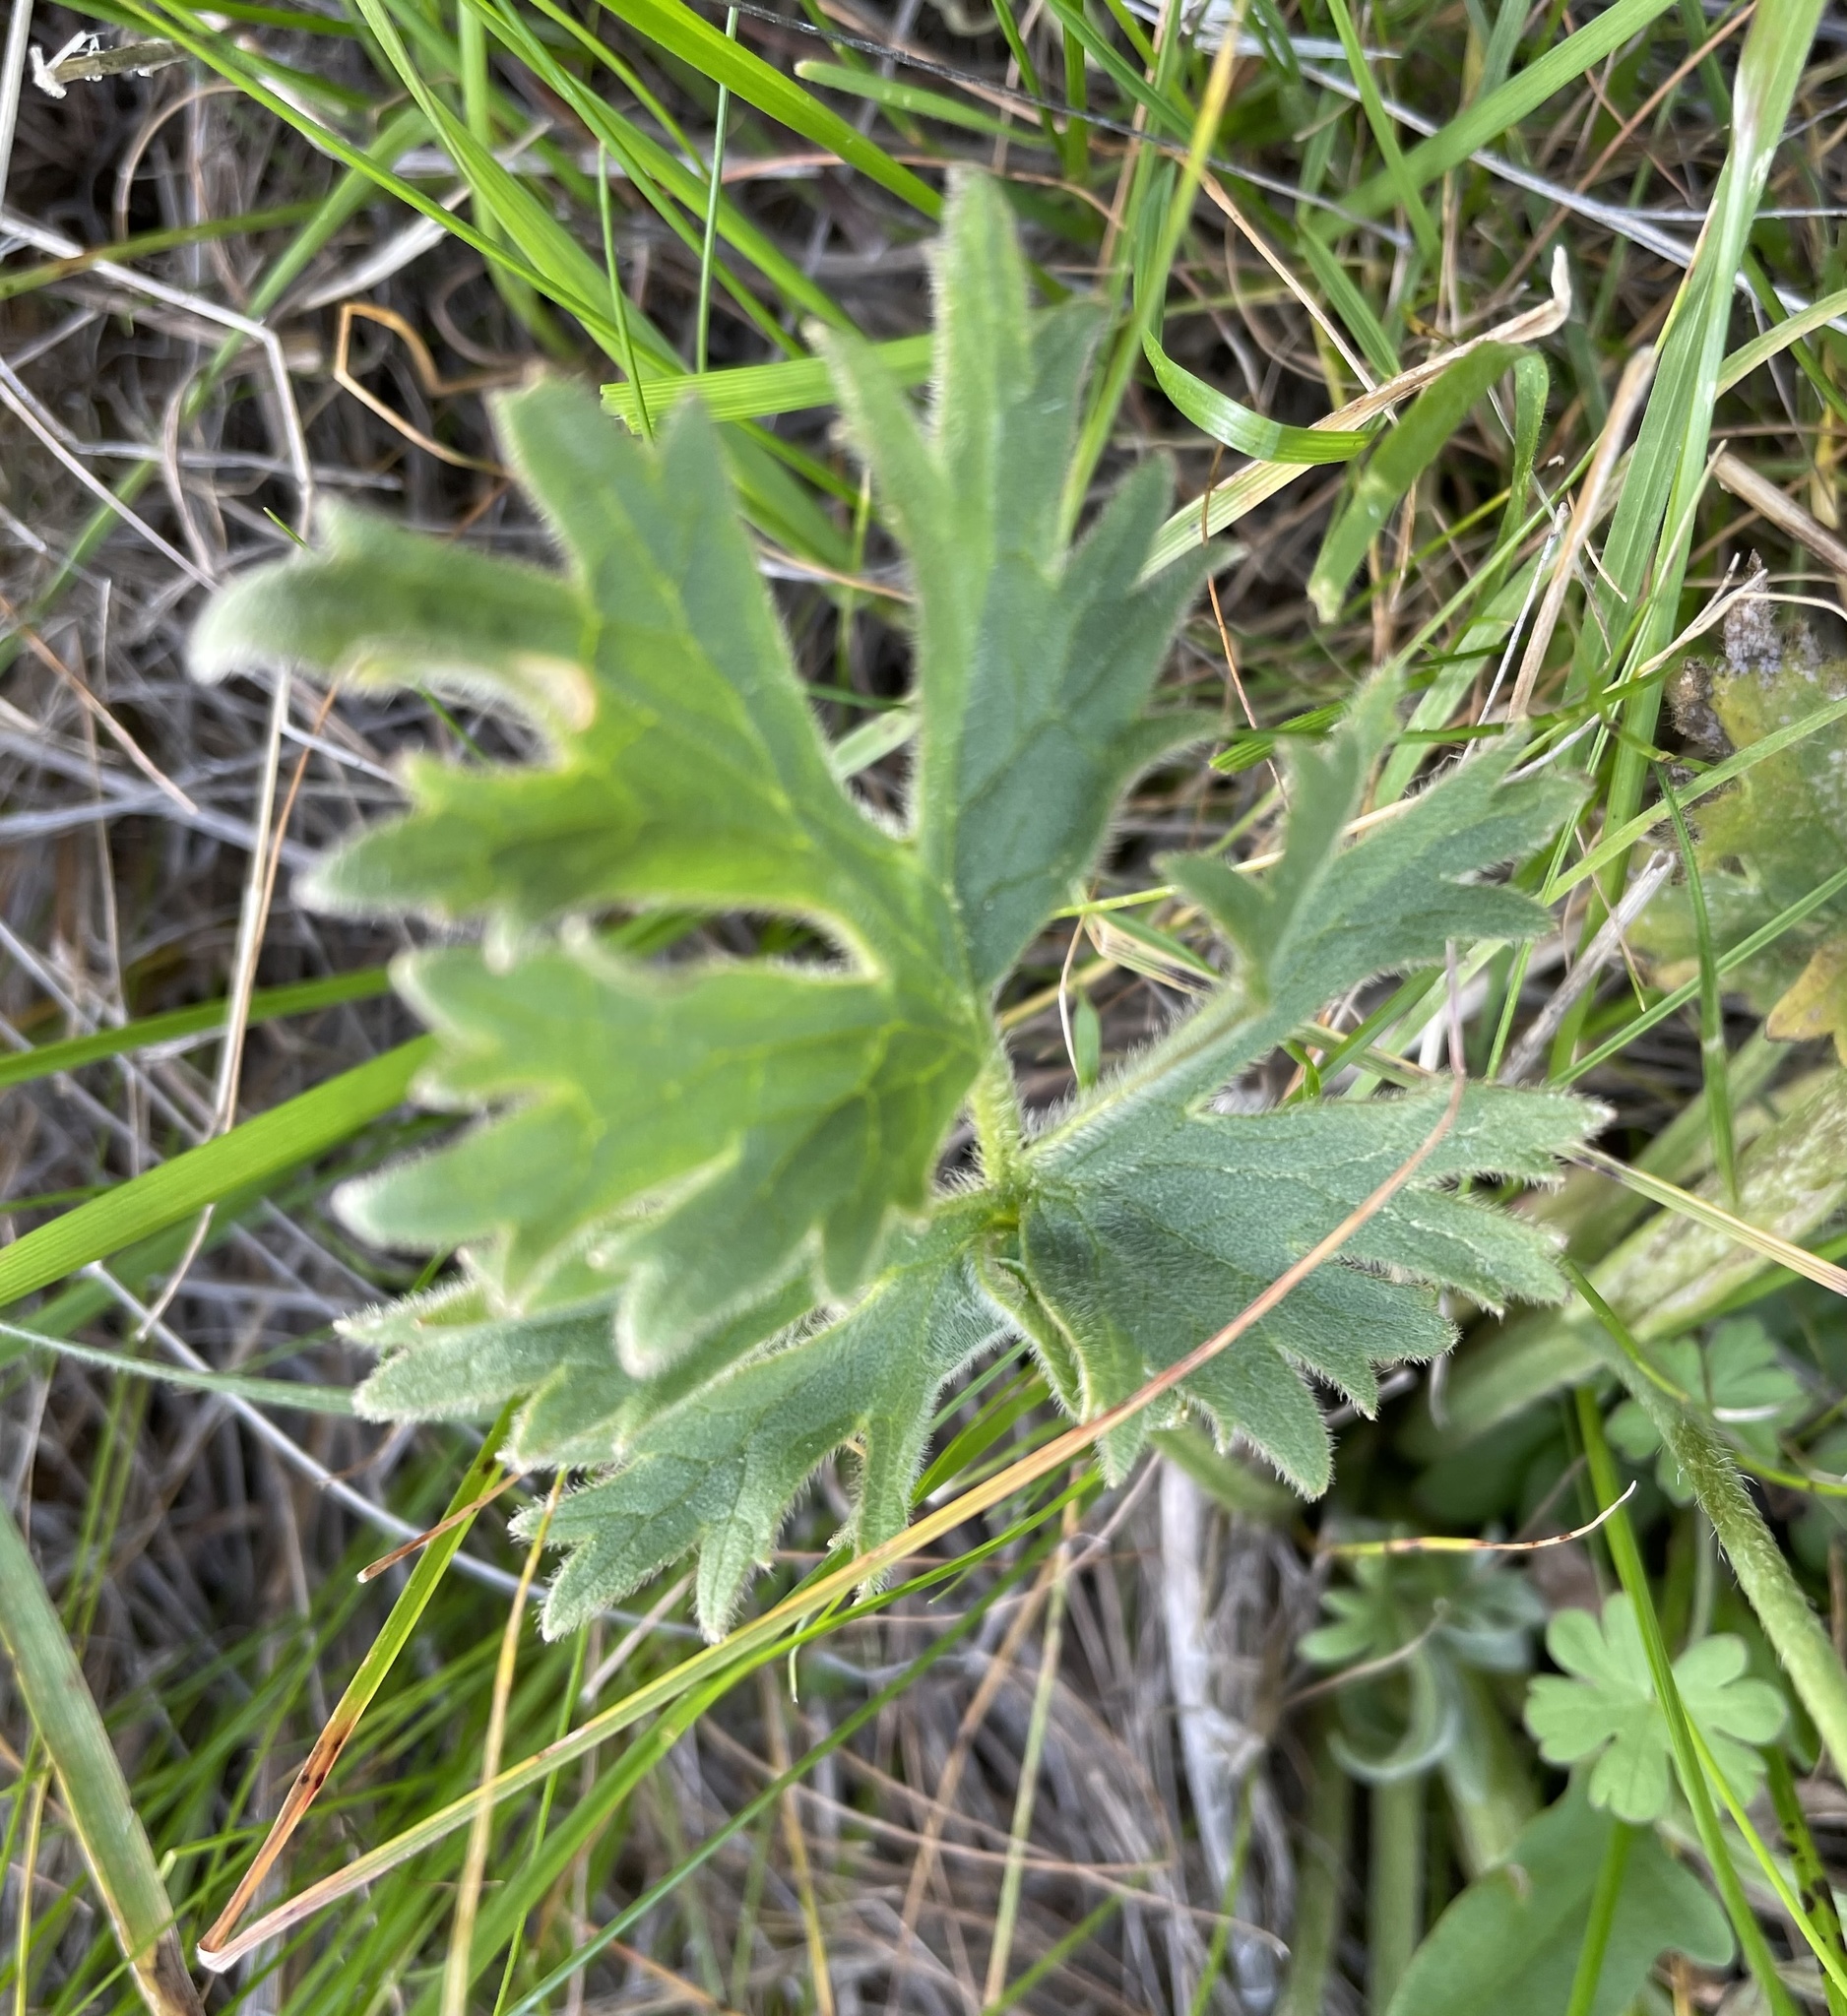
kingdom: Plantae
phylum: Tracheophyta
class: Magnoliopsida
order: Ranunculales
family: Ranunculaceae
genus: Ranunculus
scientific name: Ranunculus californicus
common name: California buttercup
